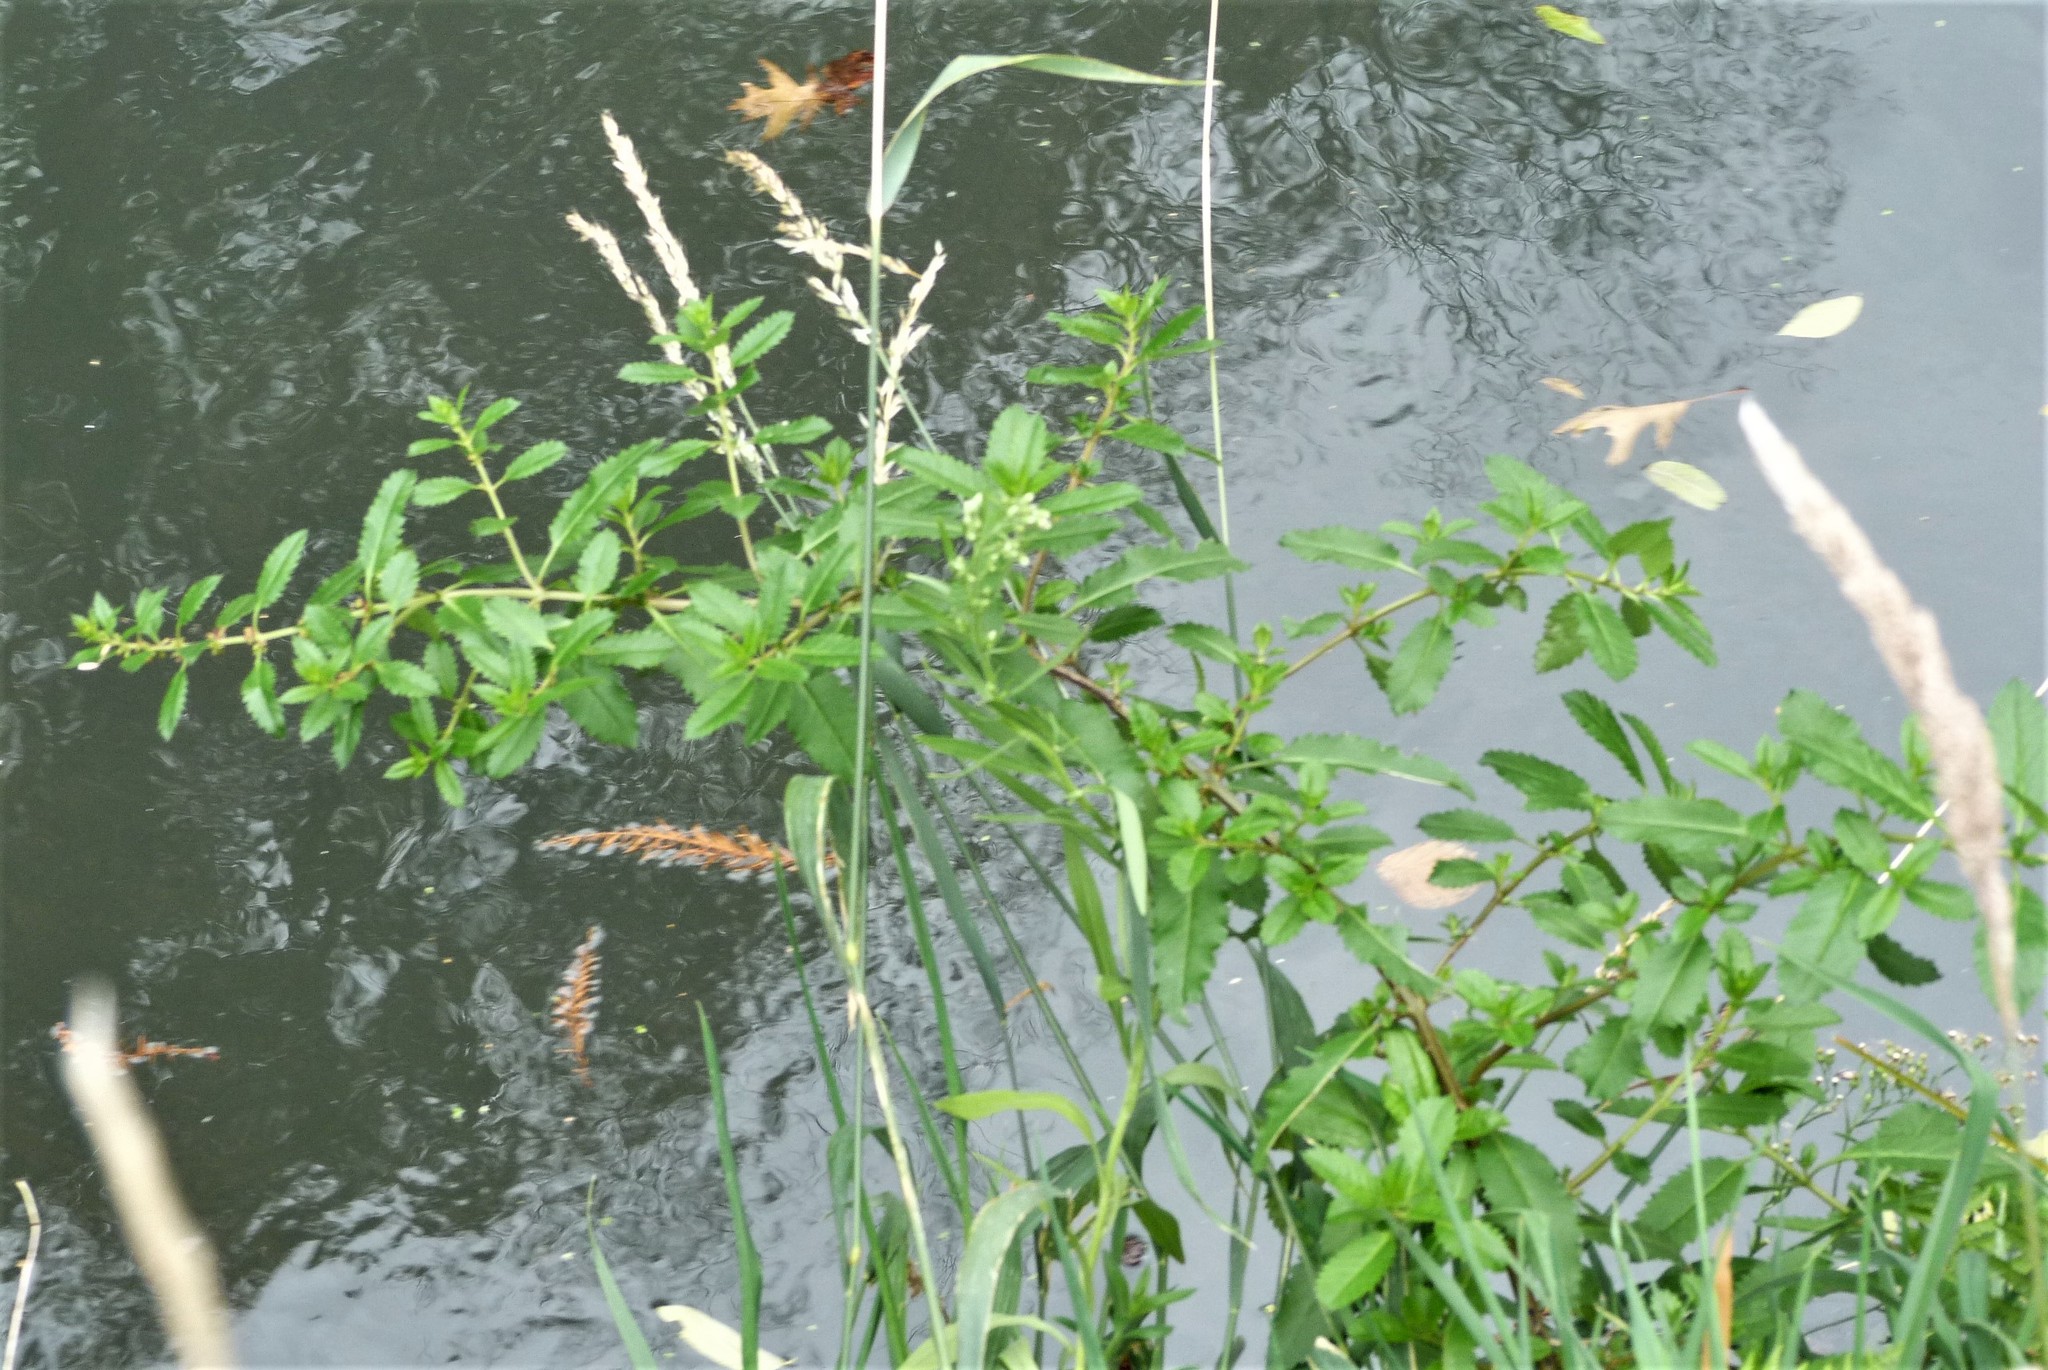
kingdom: Plantae
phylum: Tracheophyta
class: Magnoliopsida
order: Saxifragales
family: Haloragaceae
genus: Haloragis
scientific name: Haloragis erecta
